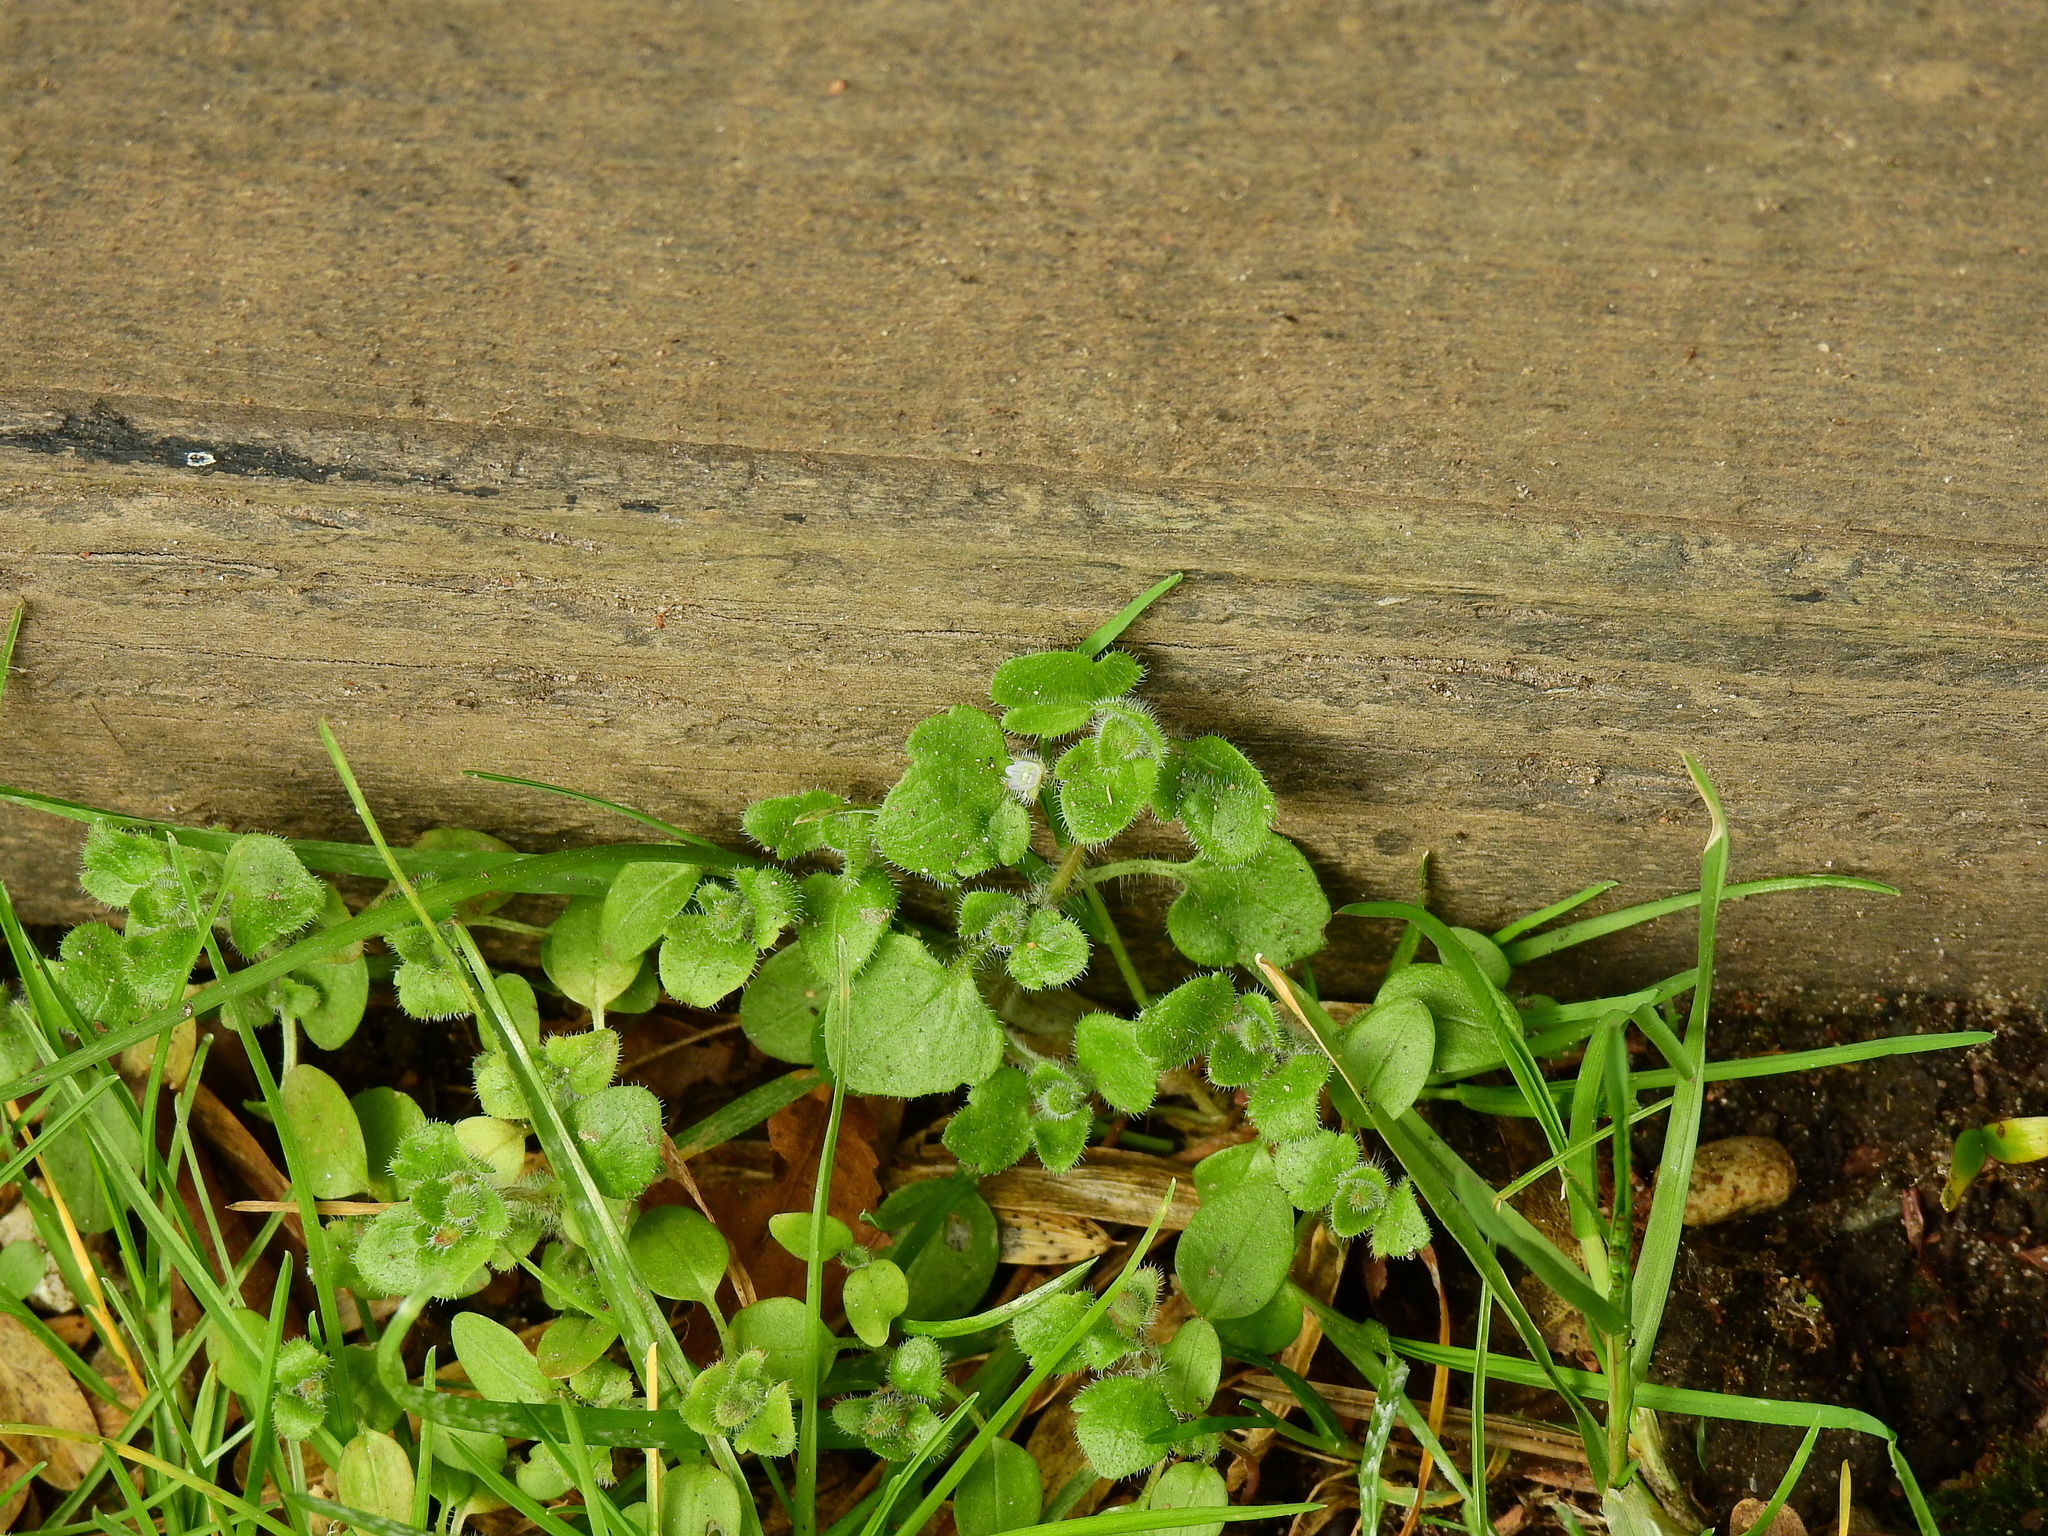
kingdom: Plantae
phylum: Tracheophyta
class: Magnoliopsida
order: Lamiales
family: Plantaginaceae
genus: Veronica
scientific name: Veronica sublobata
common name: False ivy-leaved speedwell
